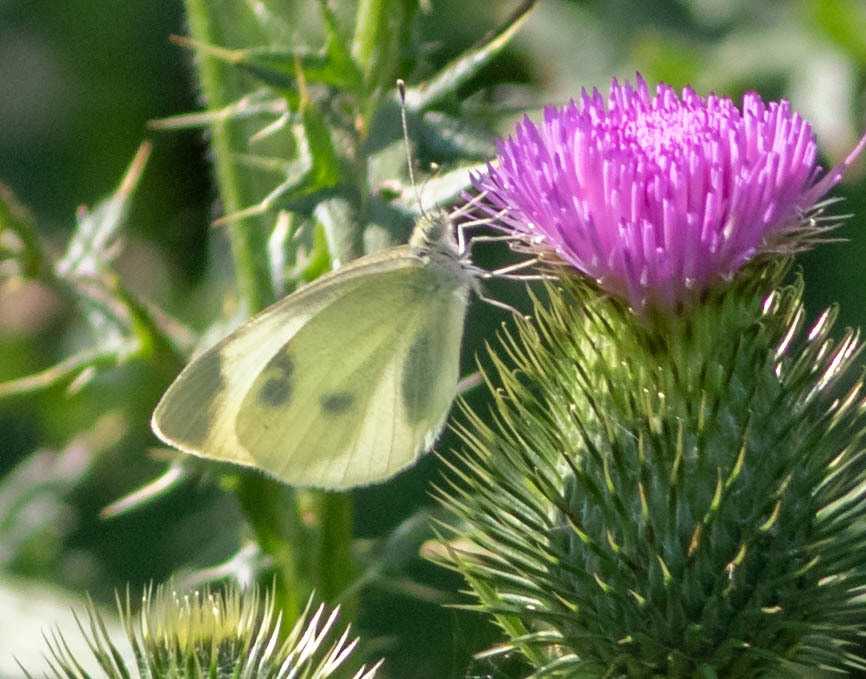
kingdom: Animalia
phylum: Arthropoda
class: Insecta
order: Lepidoptera
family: Pieridae
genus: Pieris
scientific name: Pieris rapae
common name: Small white
